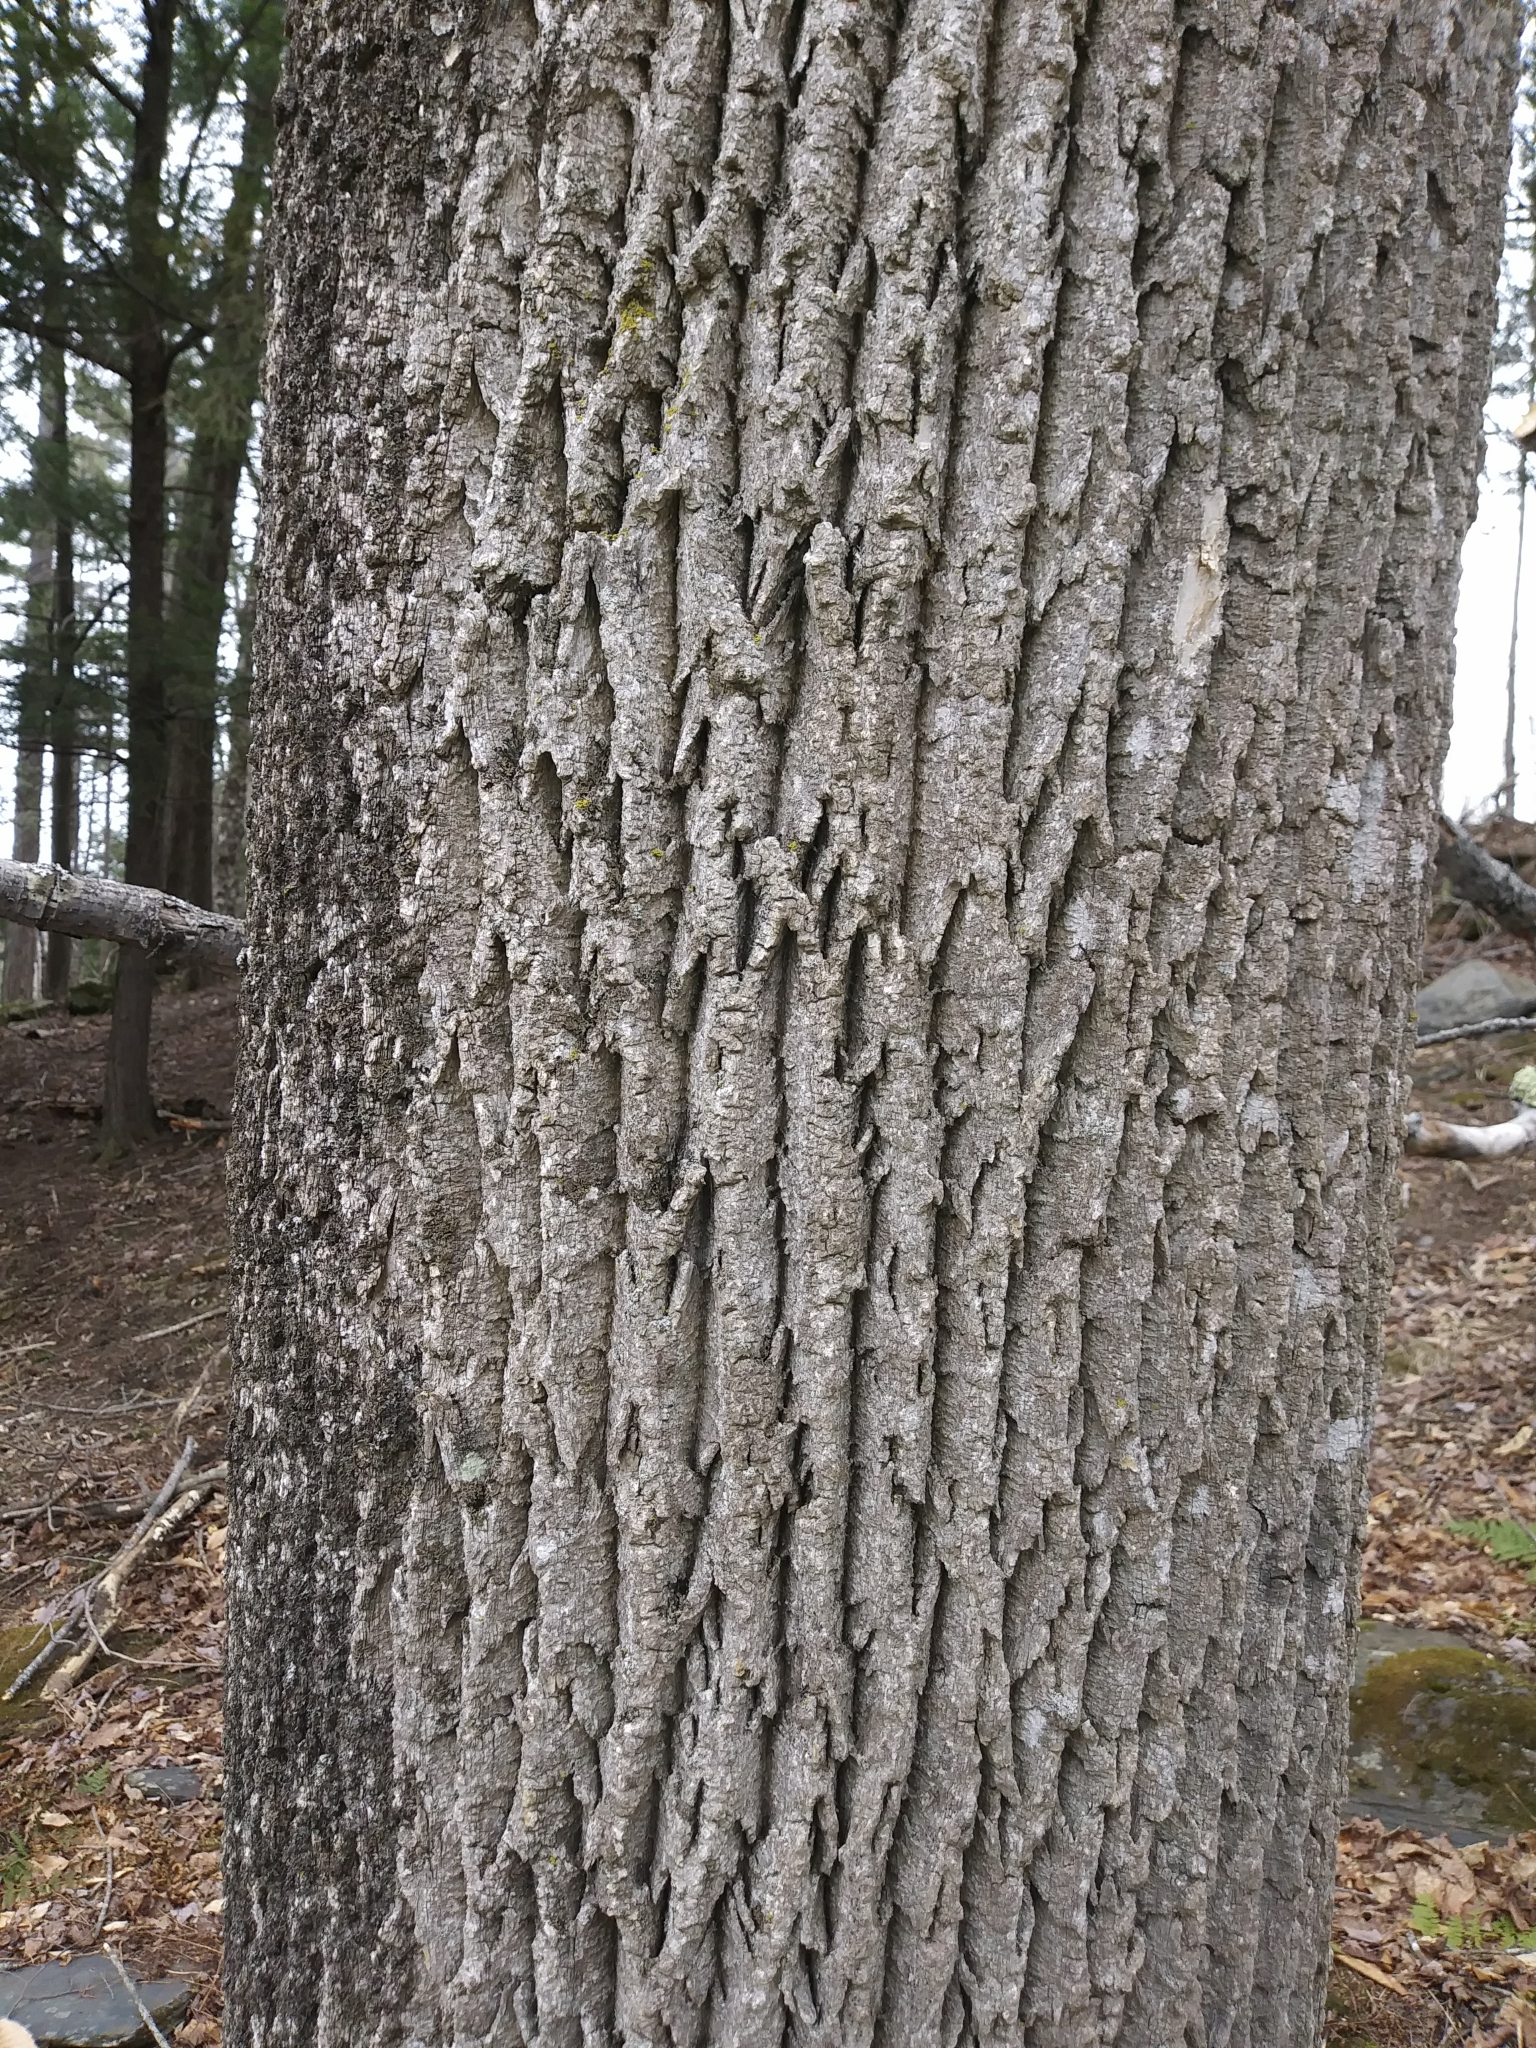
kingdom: Plantae
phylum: Tracheophyta
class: Magnoliopsida
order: Lamiales
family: Oleaceae
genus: Fraxinus
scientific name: Fraxinus americana
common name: White ash
